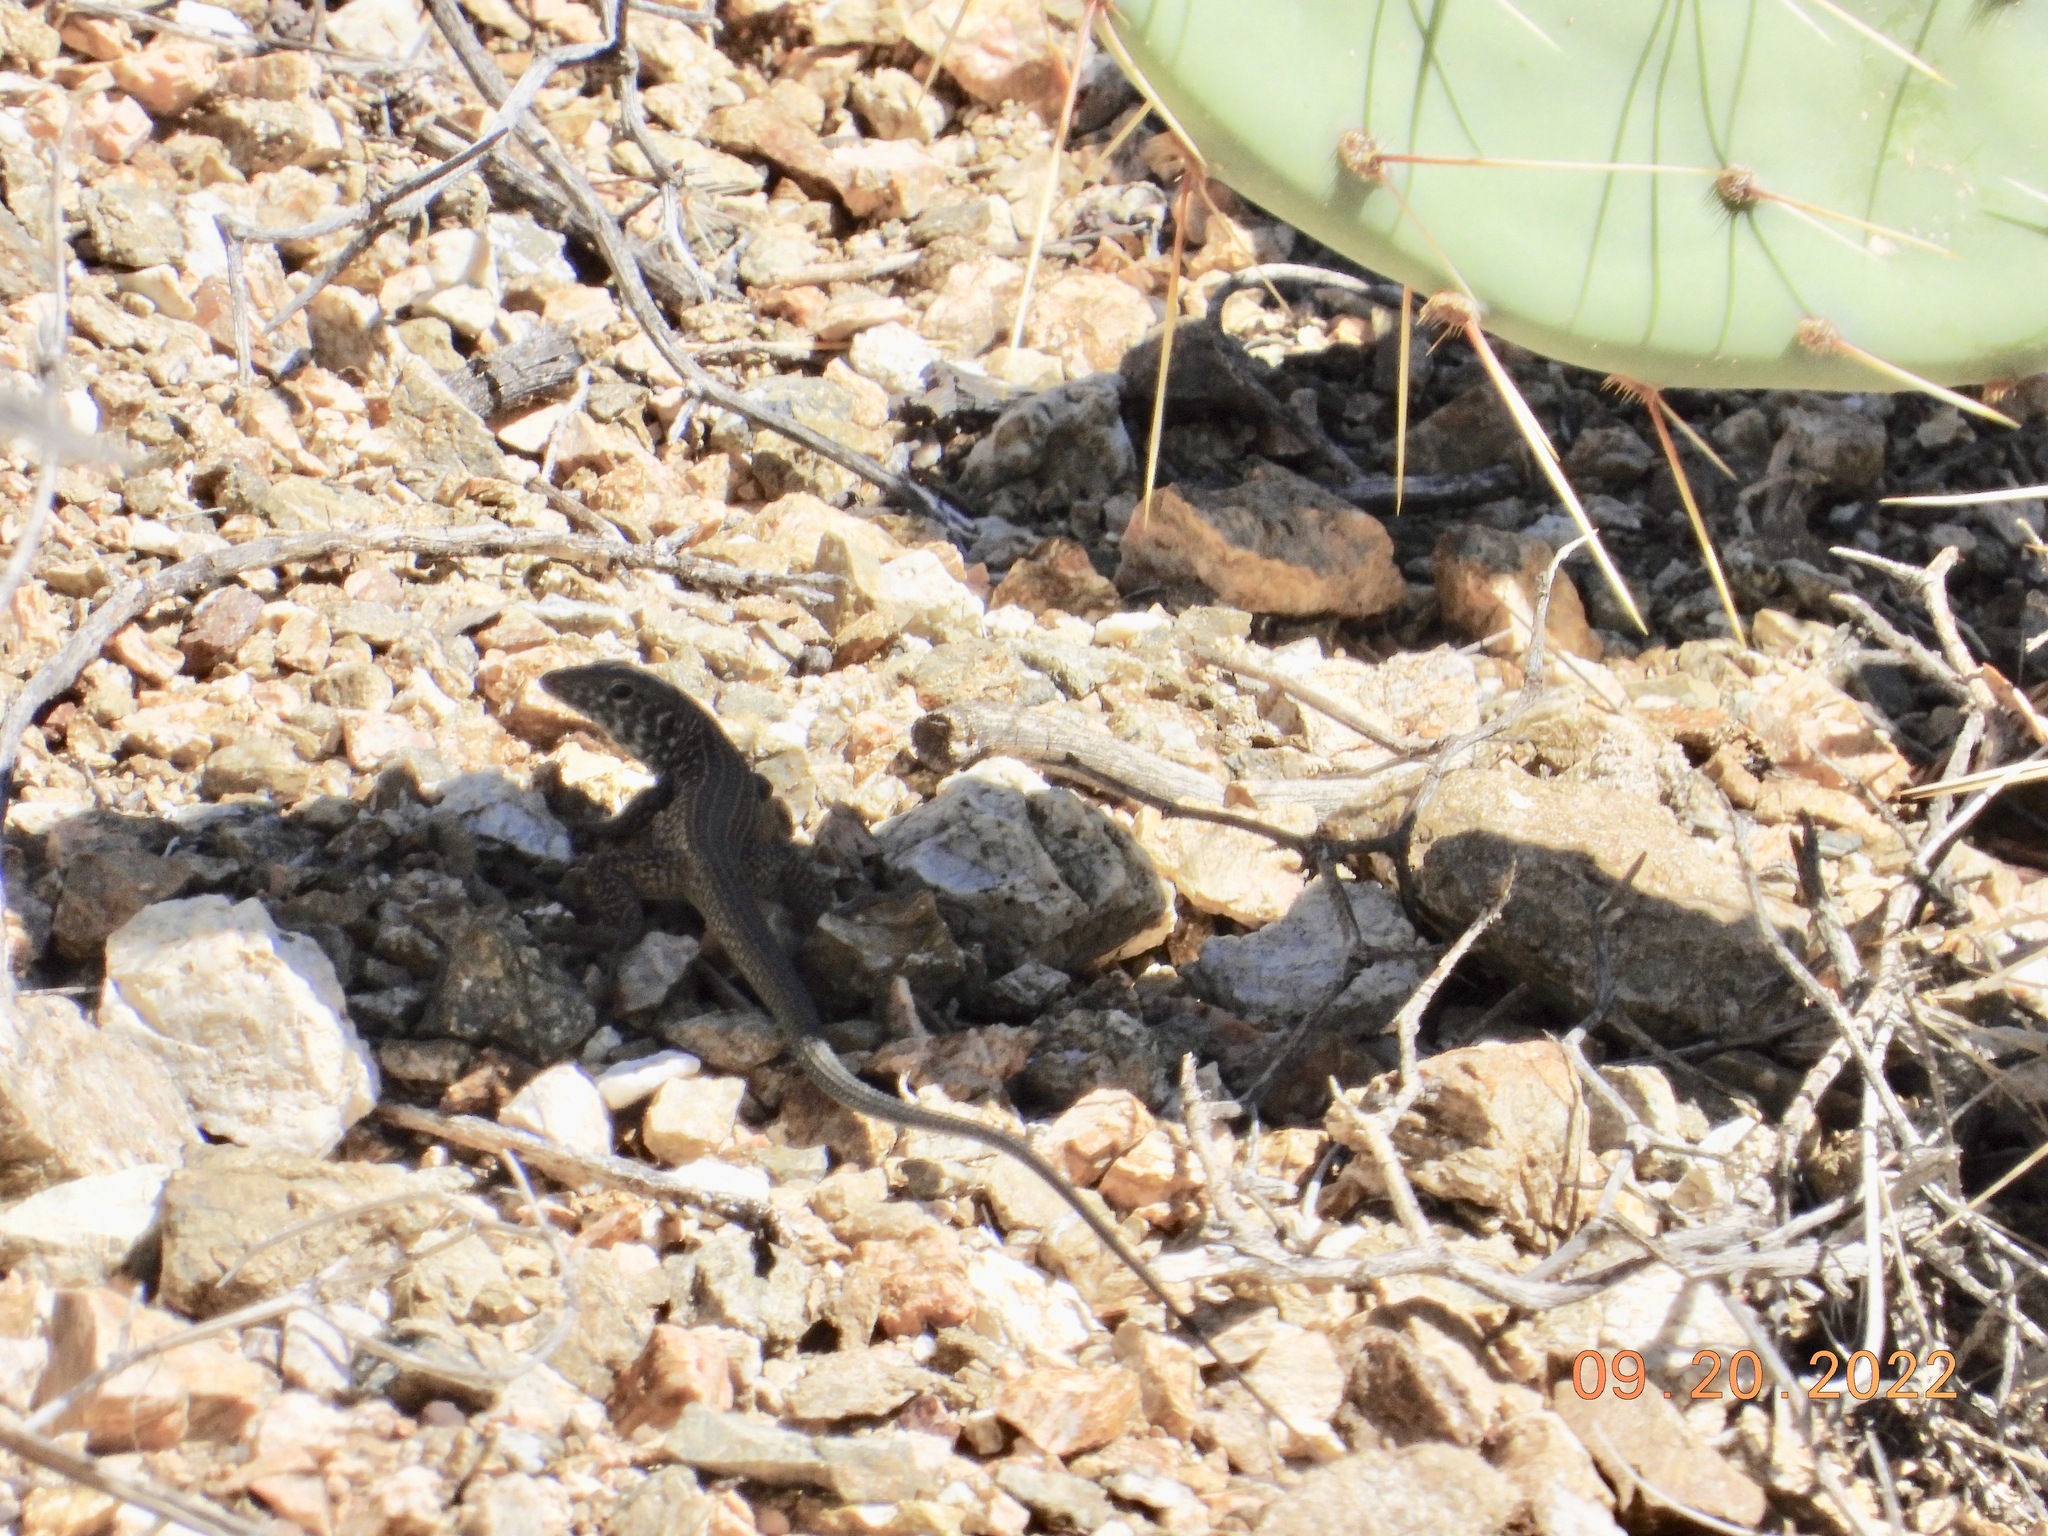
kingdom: Animalia
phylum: Chordata
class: Squamata
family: Teiidae
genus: Aspidoscelis
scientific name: Aspidoscelis tigris
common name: Tiger whiptail
